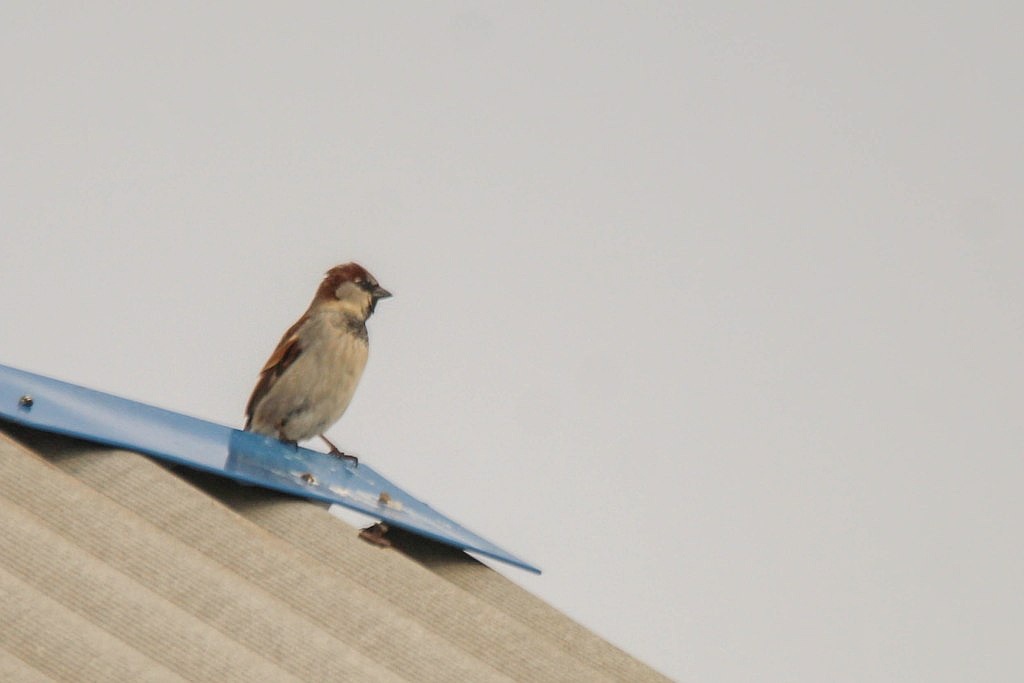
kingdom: Animalia
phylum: Chordata
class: Aves
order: Passeriformes
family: Passeridae
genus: Passer
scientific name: Passer domesticus
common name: House sparrow
